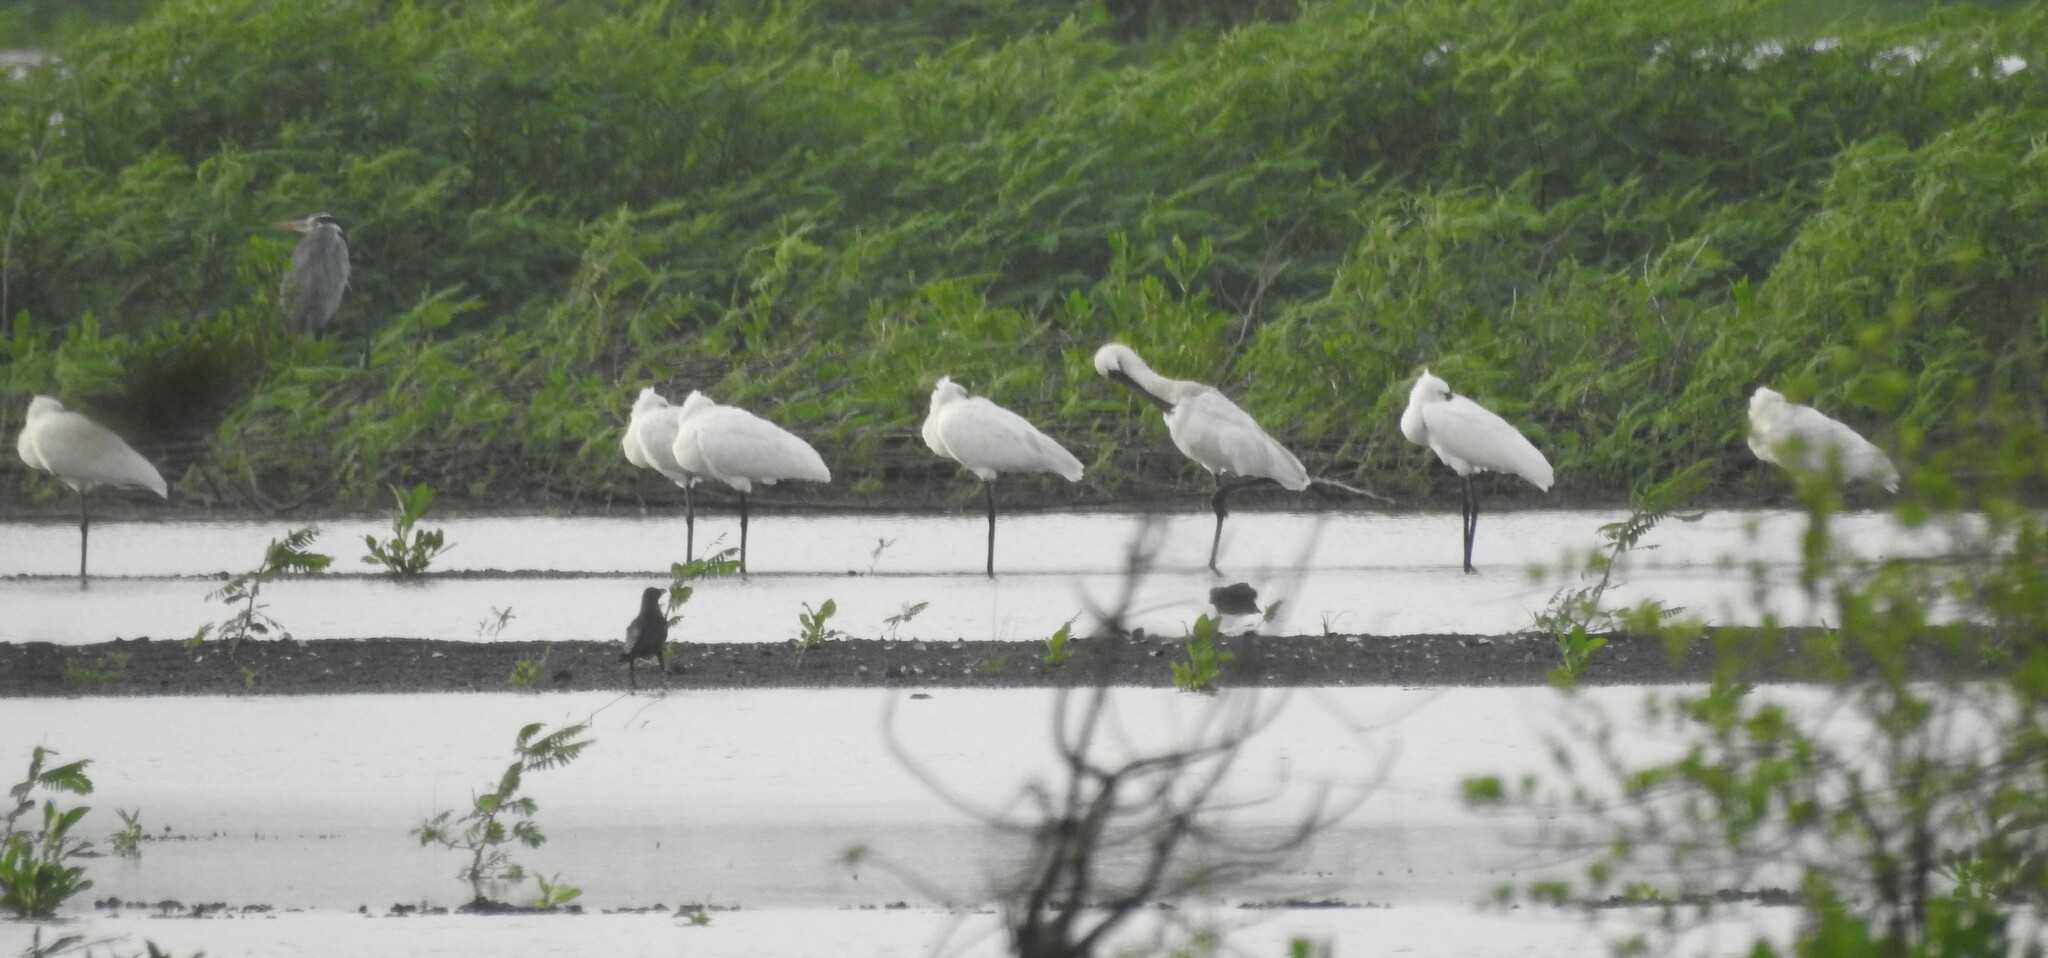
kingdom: Animalia
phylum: Chordata
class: Aves
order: Pelecaniformes
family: Threskiornithidae
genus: Platalea
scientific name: Platalea leucorodia
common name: Eurasian spoonbill
